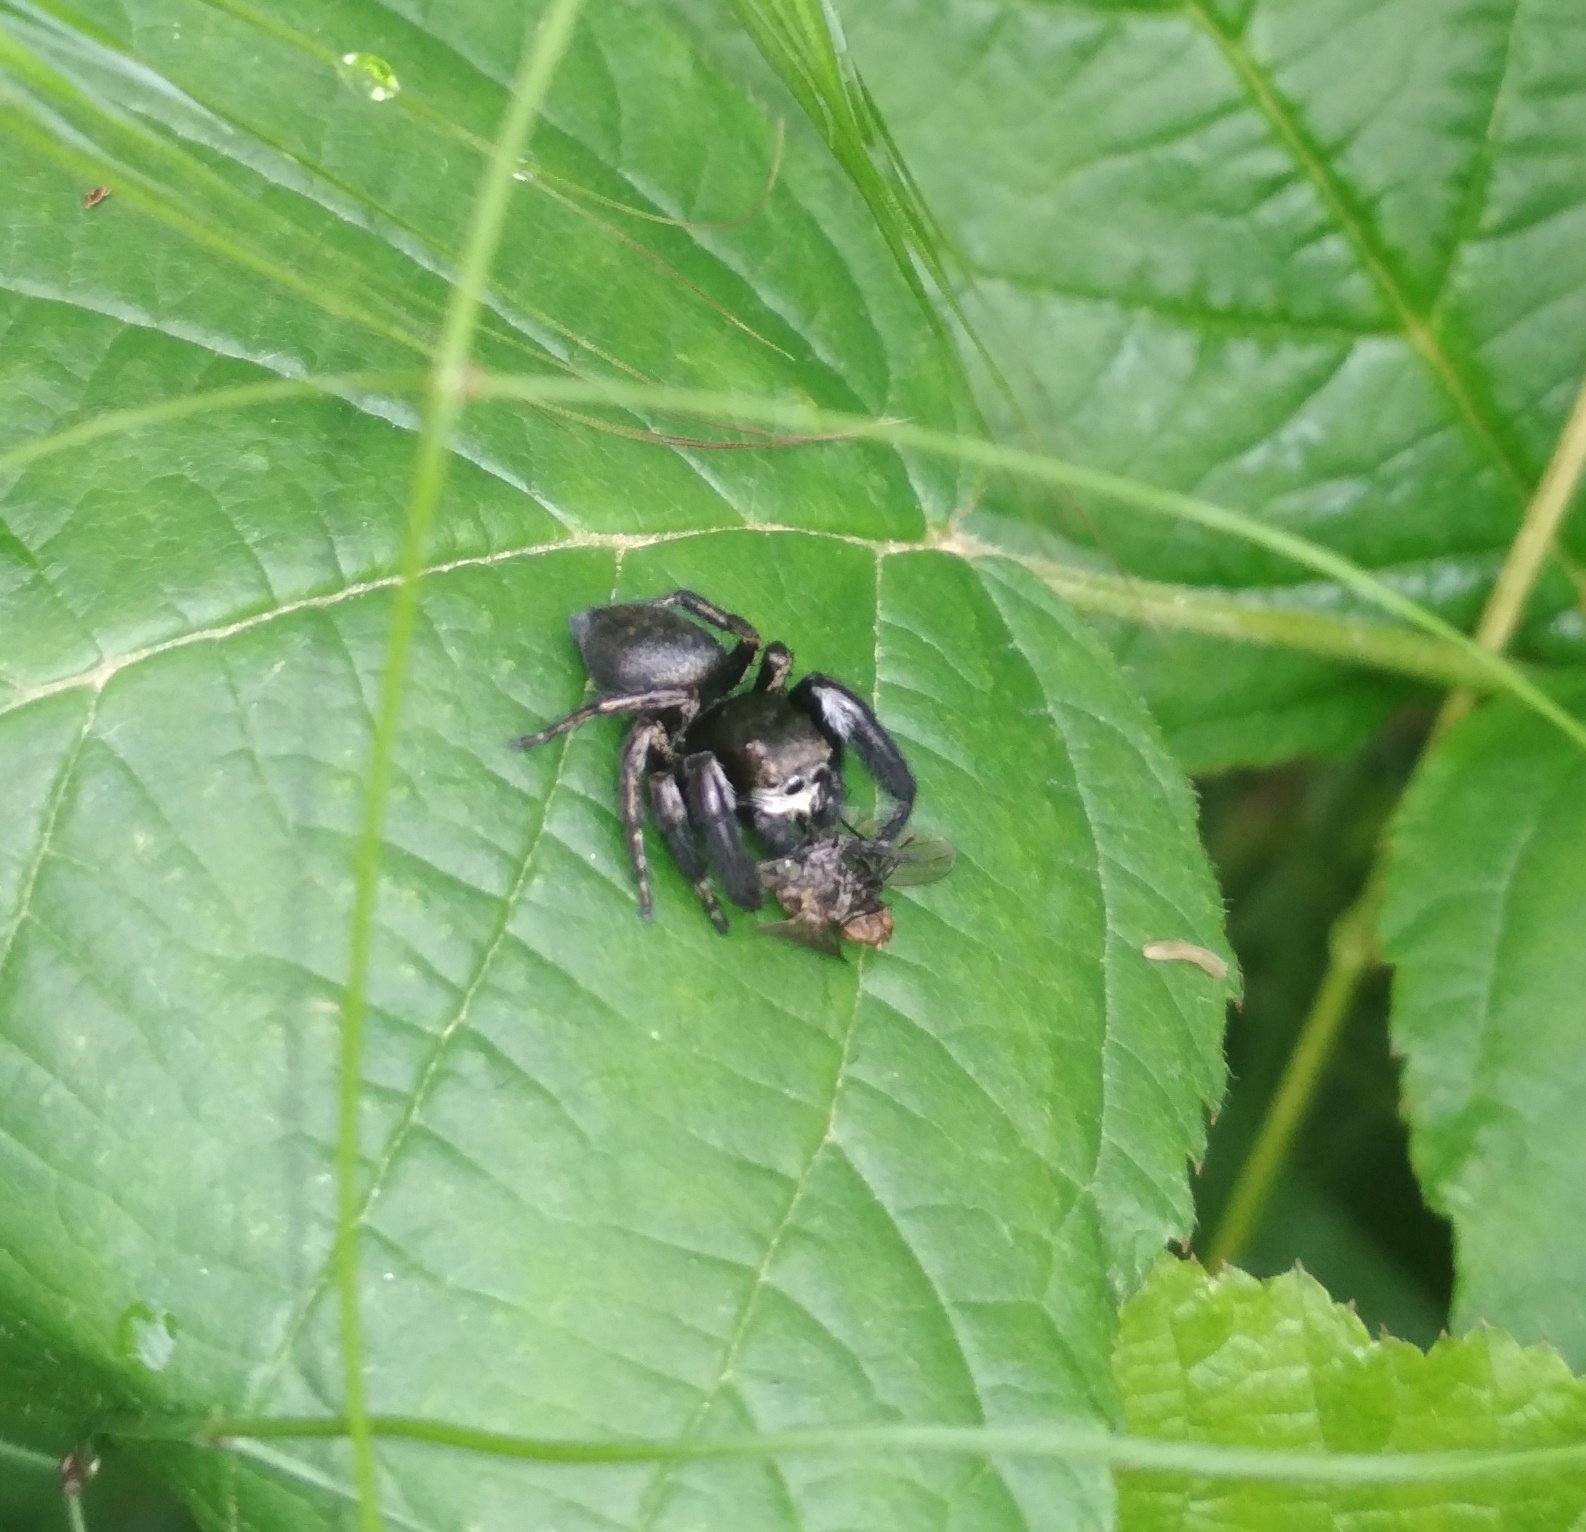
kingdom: Animalia
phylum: Arthropoda
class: Arachnida
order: Araneae
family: Salticidae
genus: Evarcha
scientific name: Evarcha arcuata
